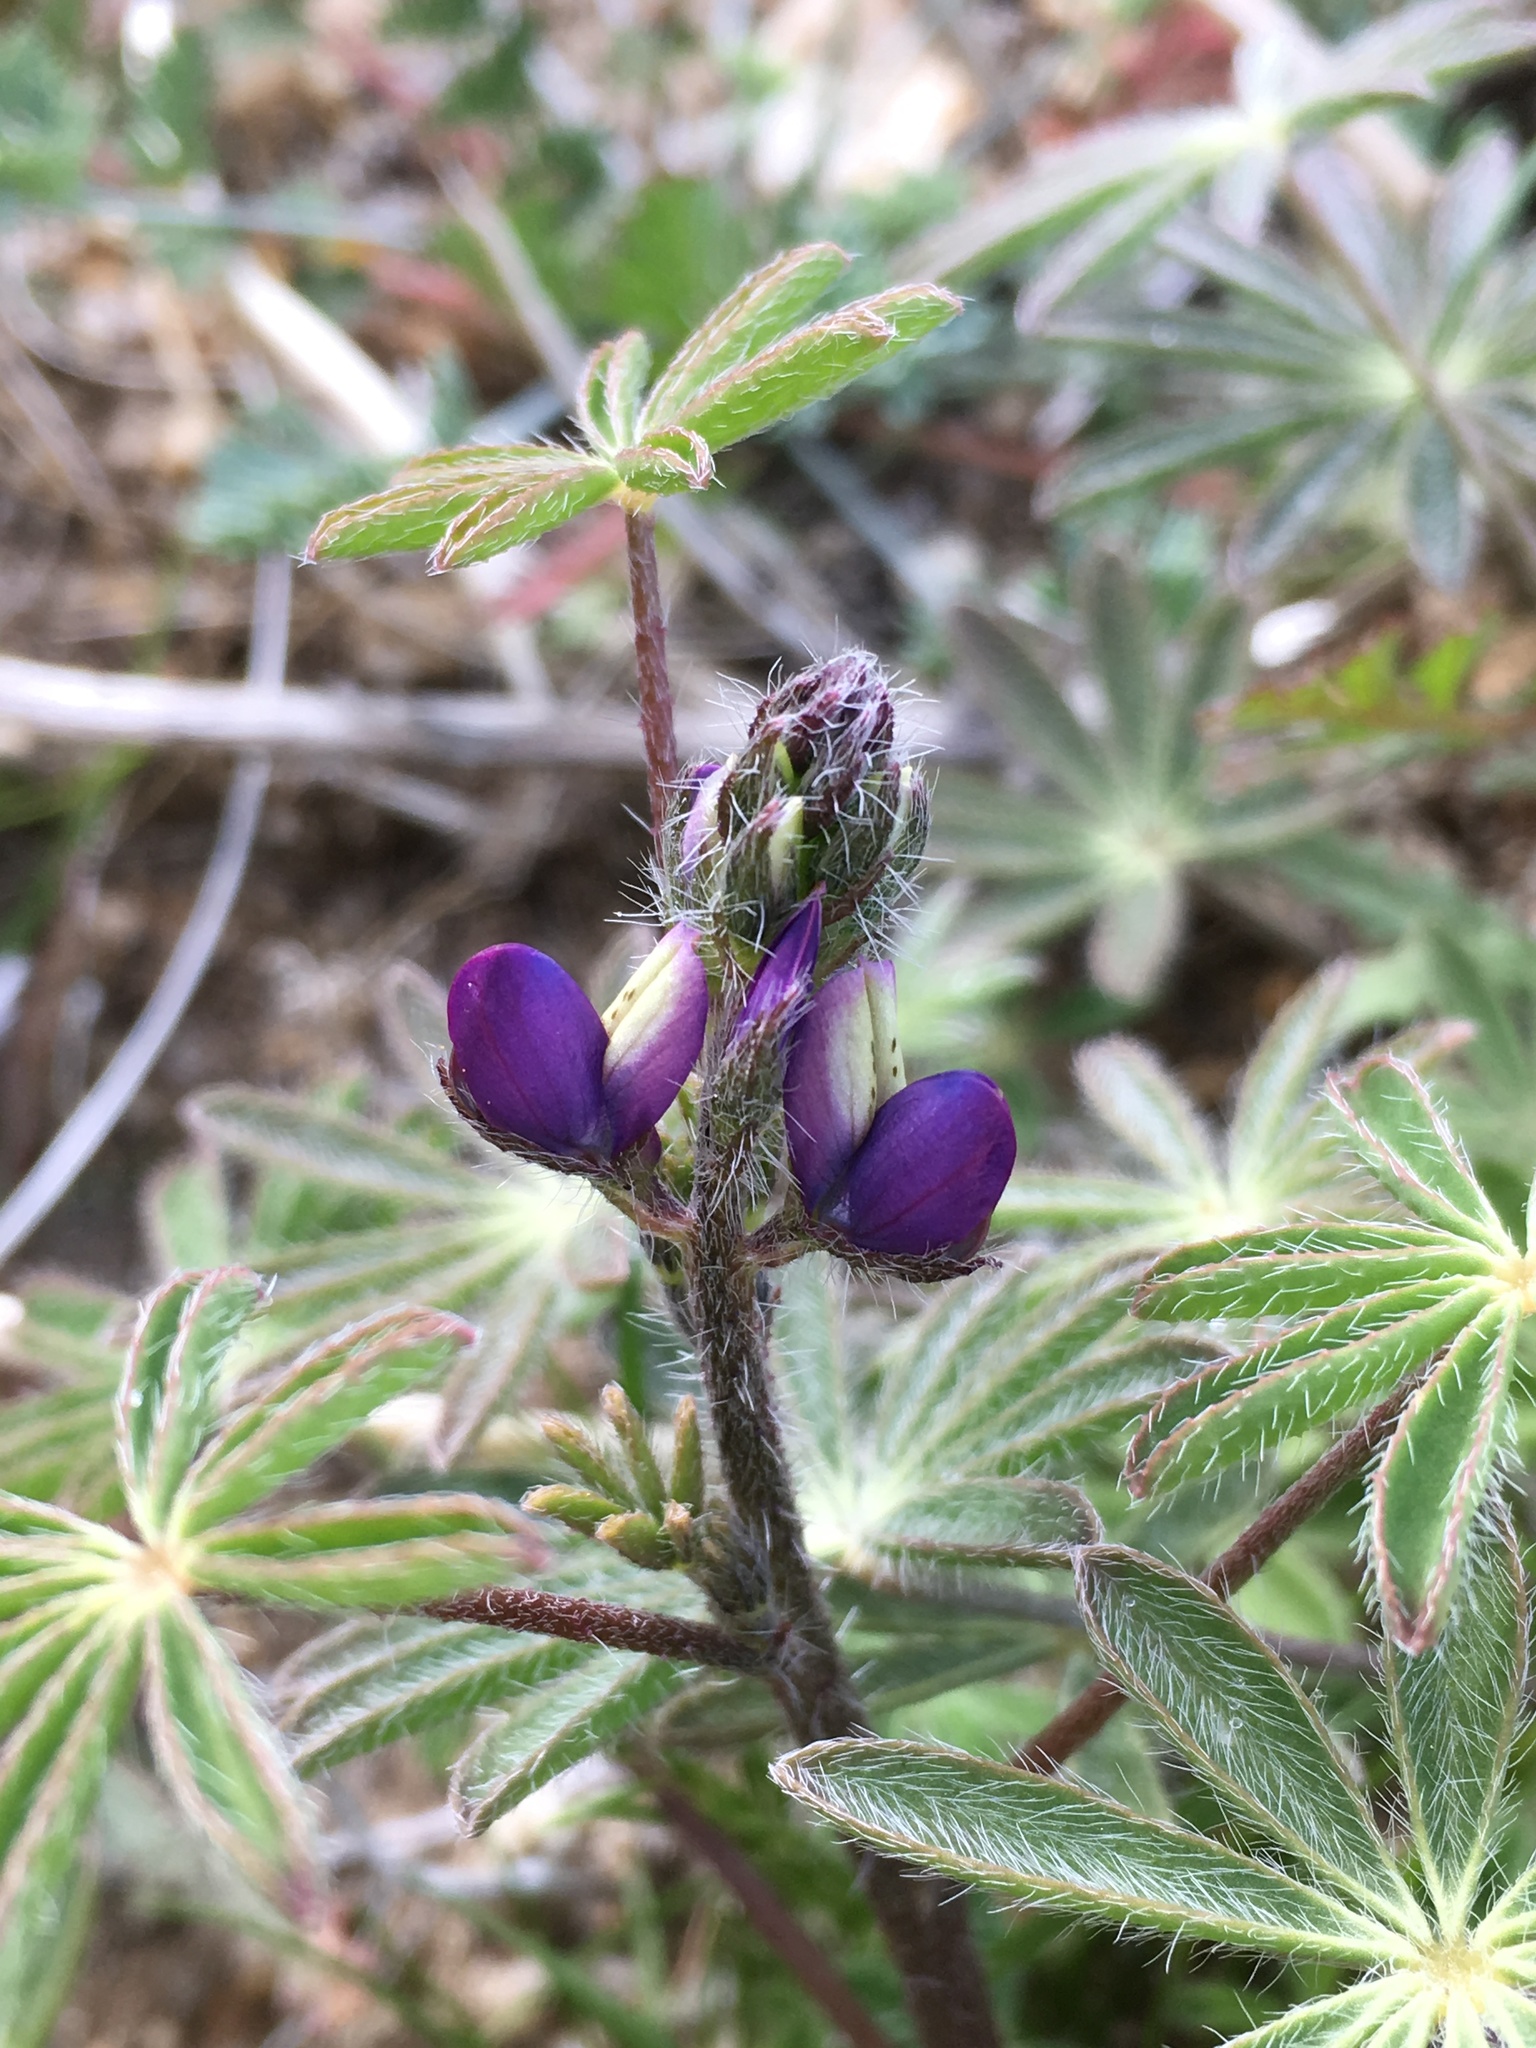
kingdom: Plantae
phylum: Tracheophyta
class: Magnoliopsida
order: Fabales
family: Fabaceae
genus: Lupinus
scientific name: Lupinus concinnus
